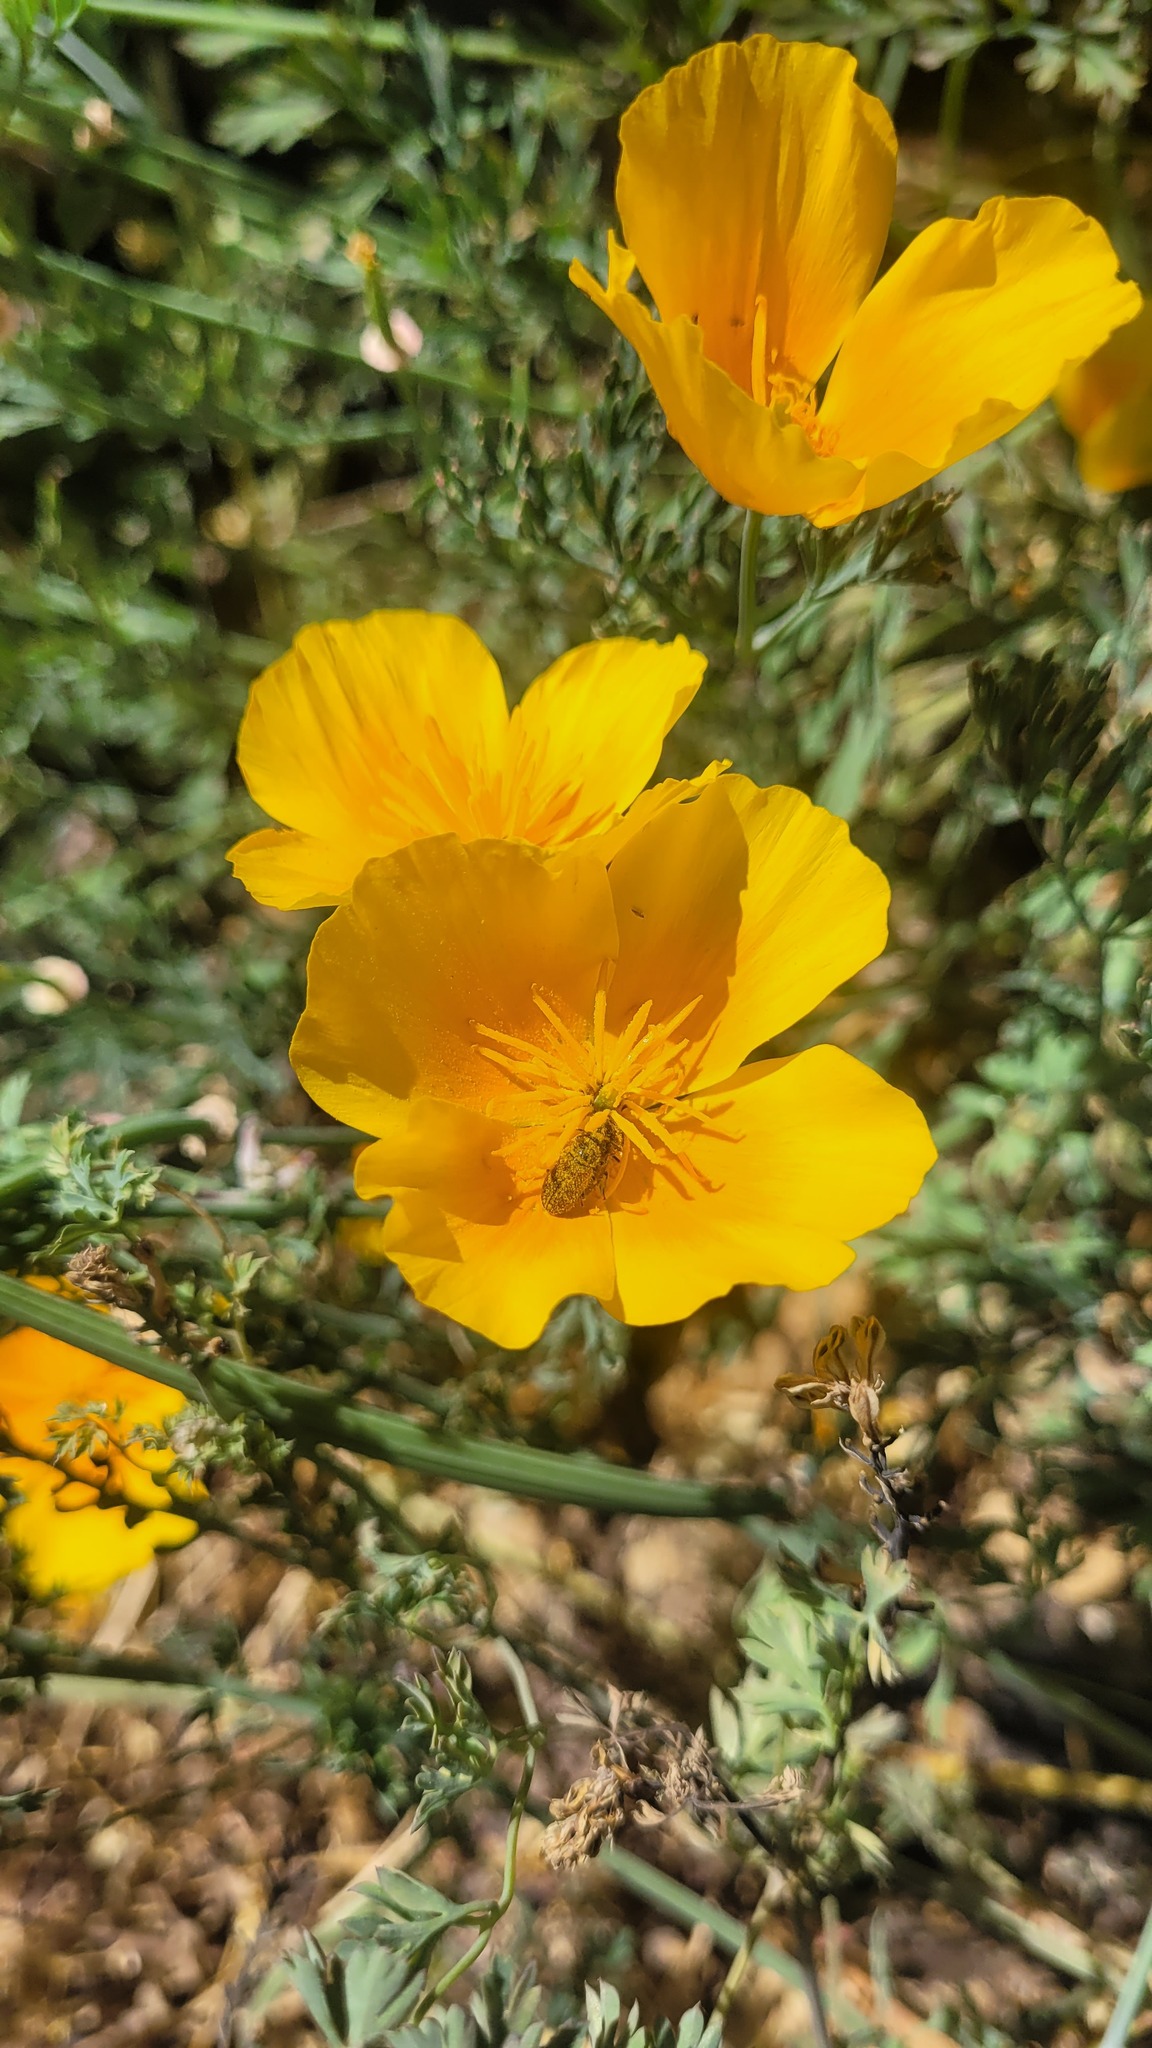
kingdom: Plantae
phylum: Tracheophyta
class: Magnoliopsida
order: Ranunculales
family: Papaveraceae
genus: Eschscholzia
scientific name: Eschscholzia californica
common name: California poppy
